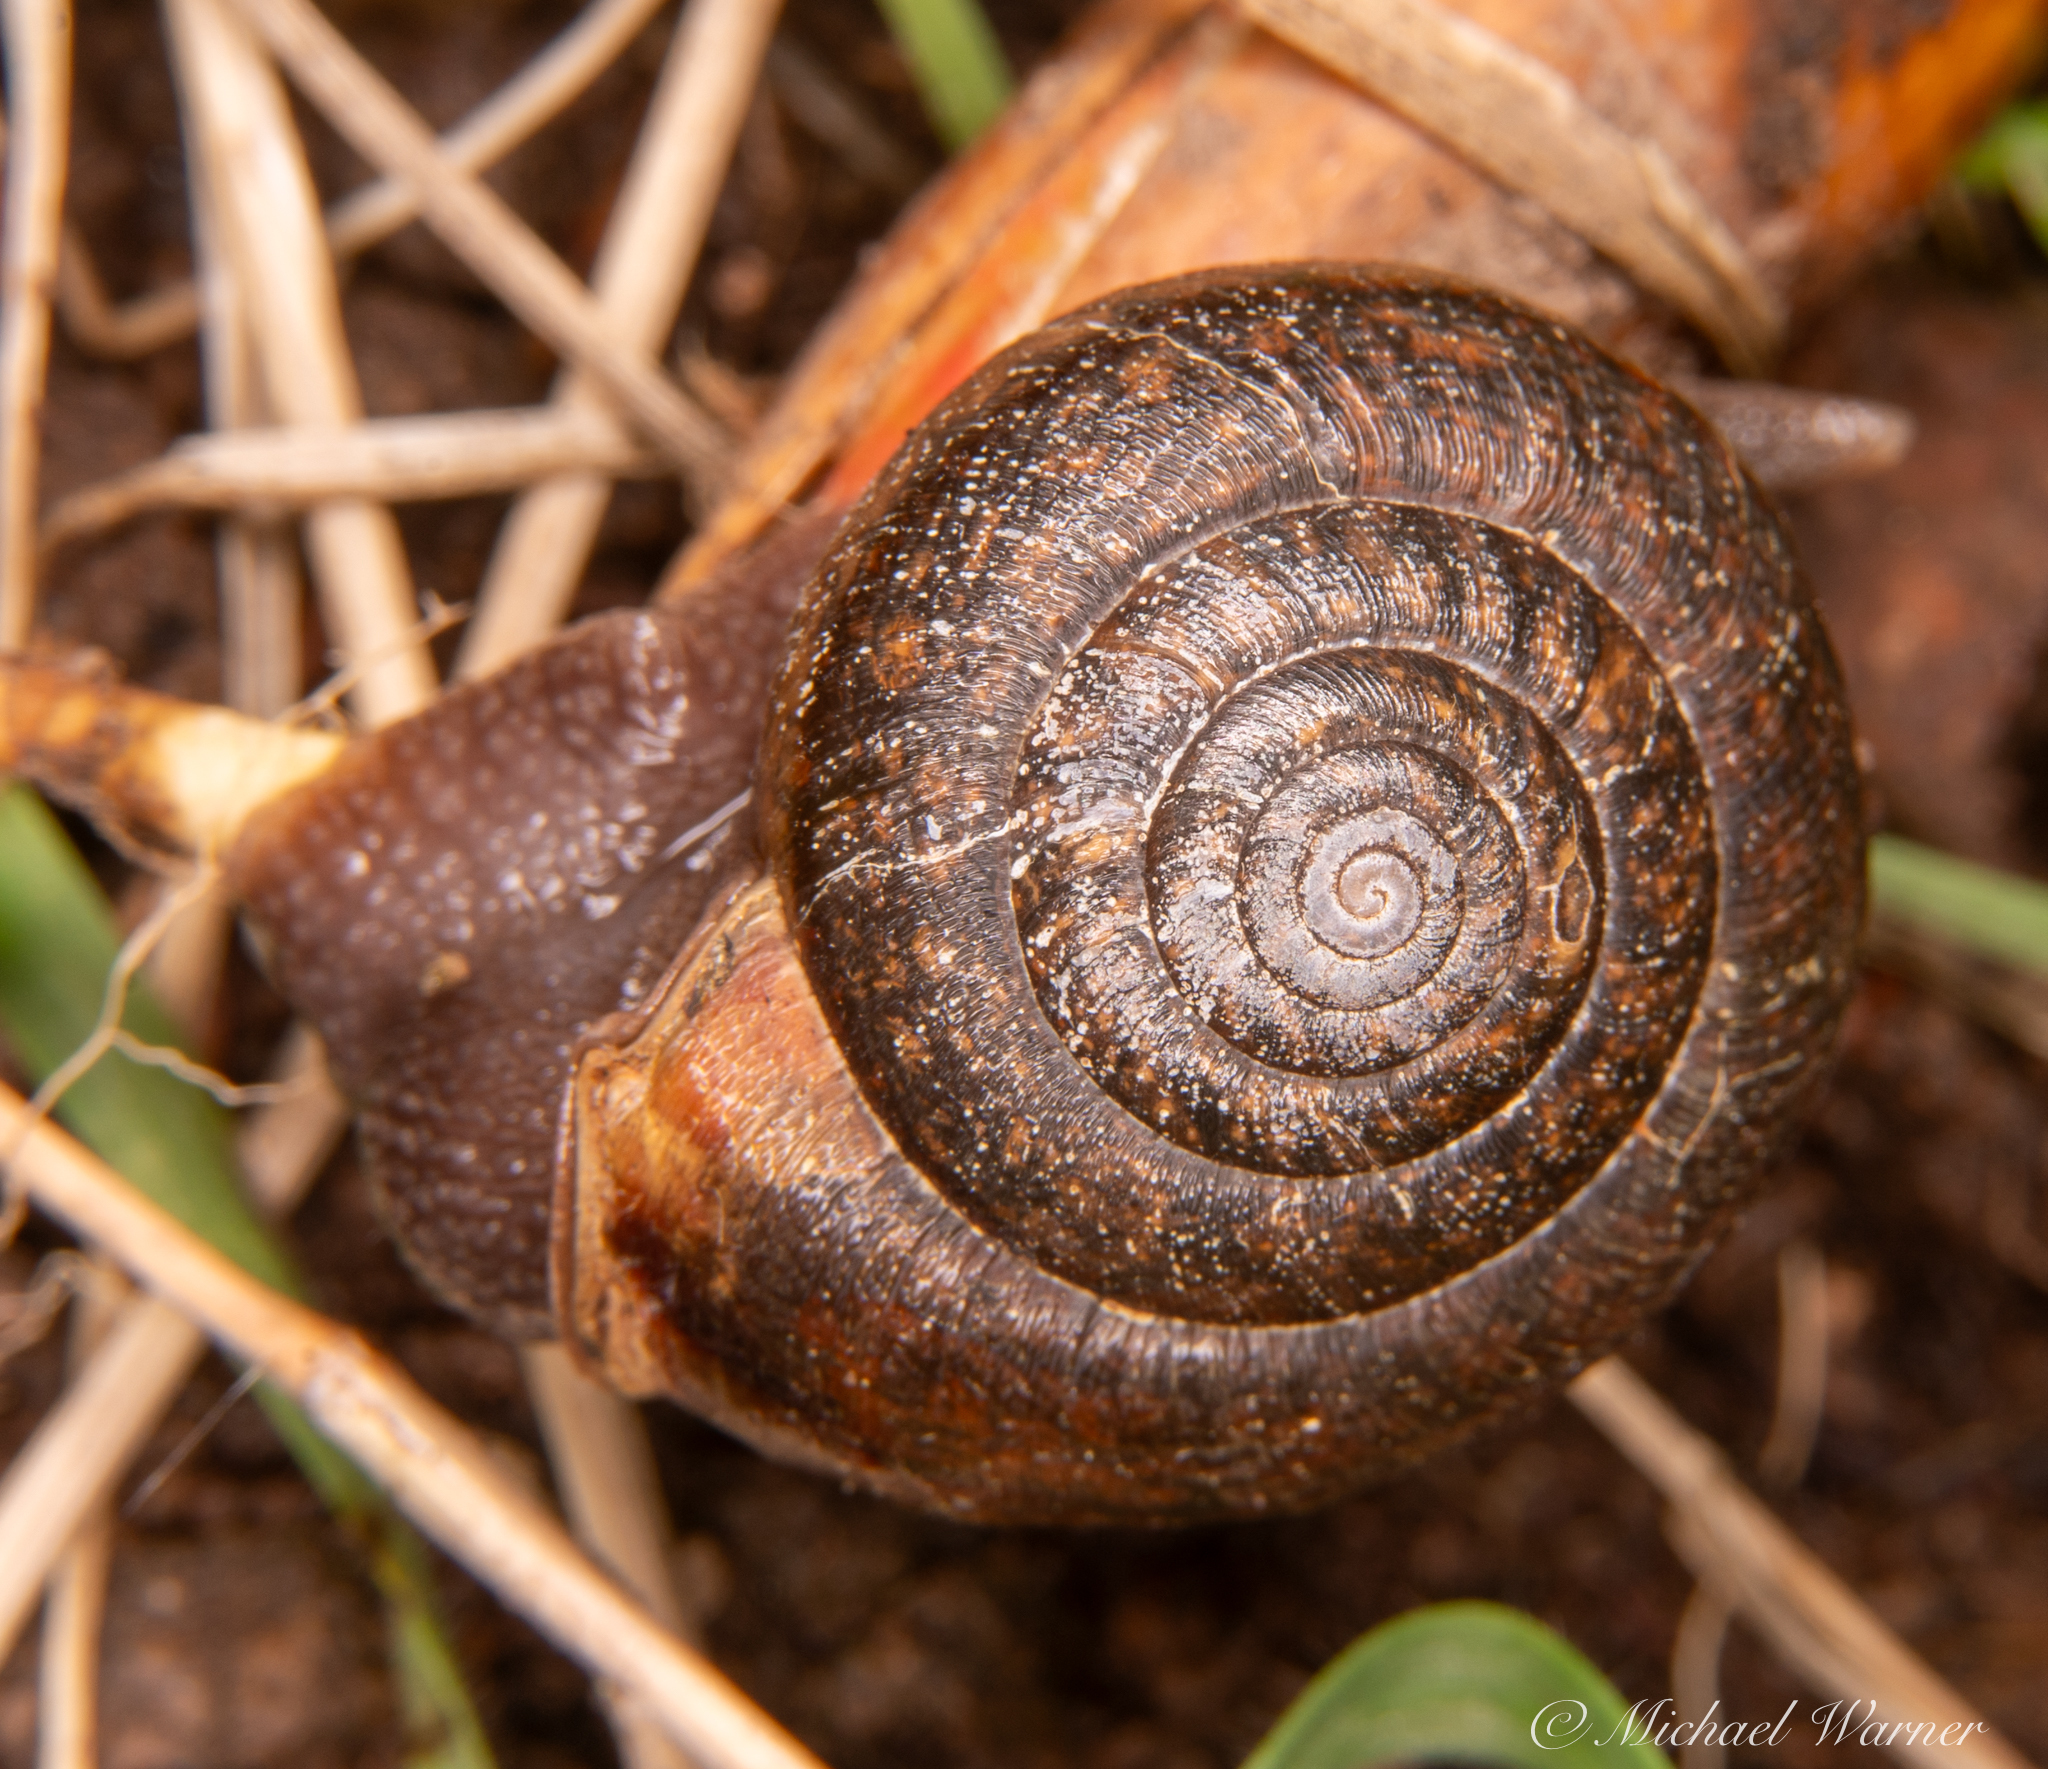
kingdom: Animalia
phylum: Mollusca
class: Gastropoda
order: Stylommatophora
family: Xanthonychidae
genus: Helminthoglypta
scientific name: Helminthoglypta diabloensis
